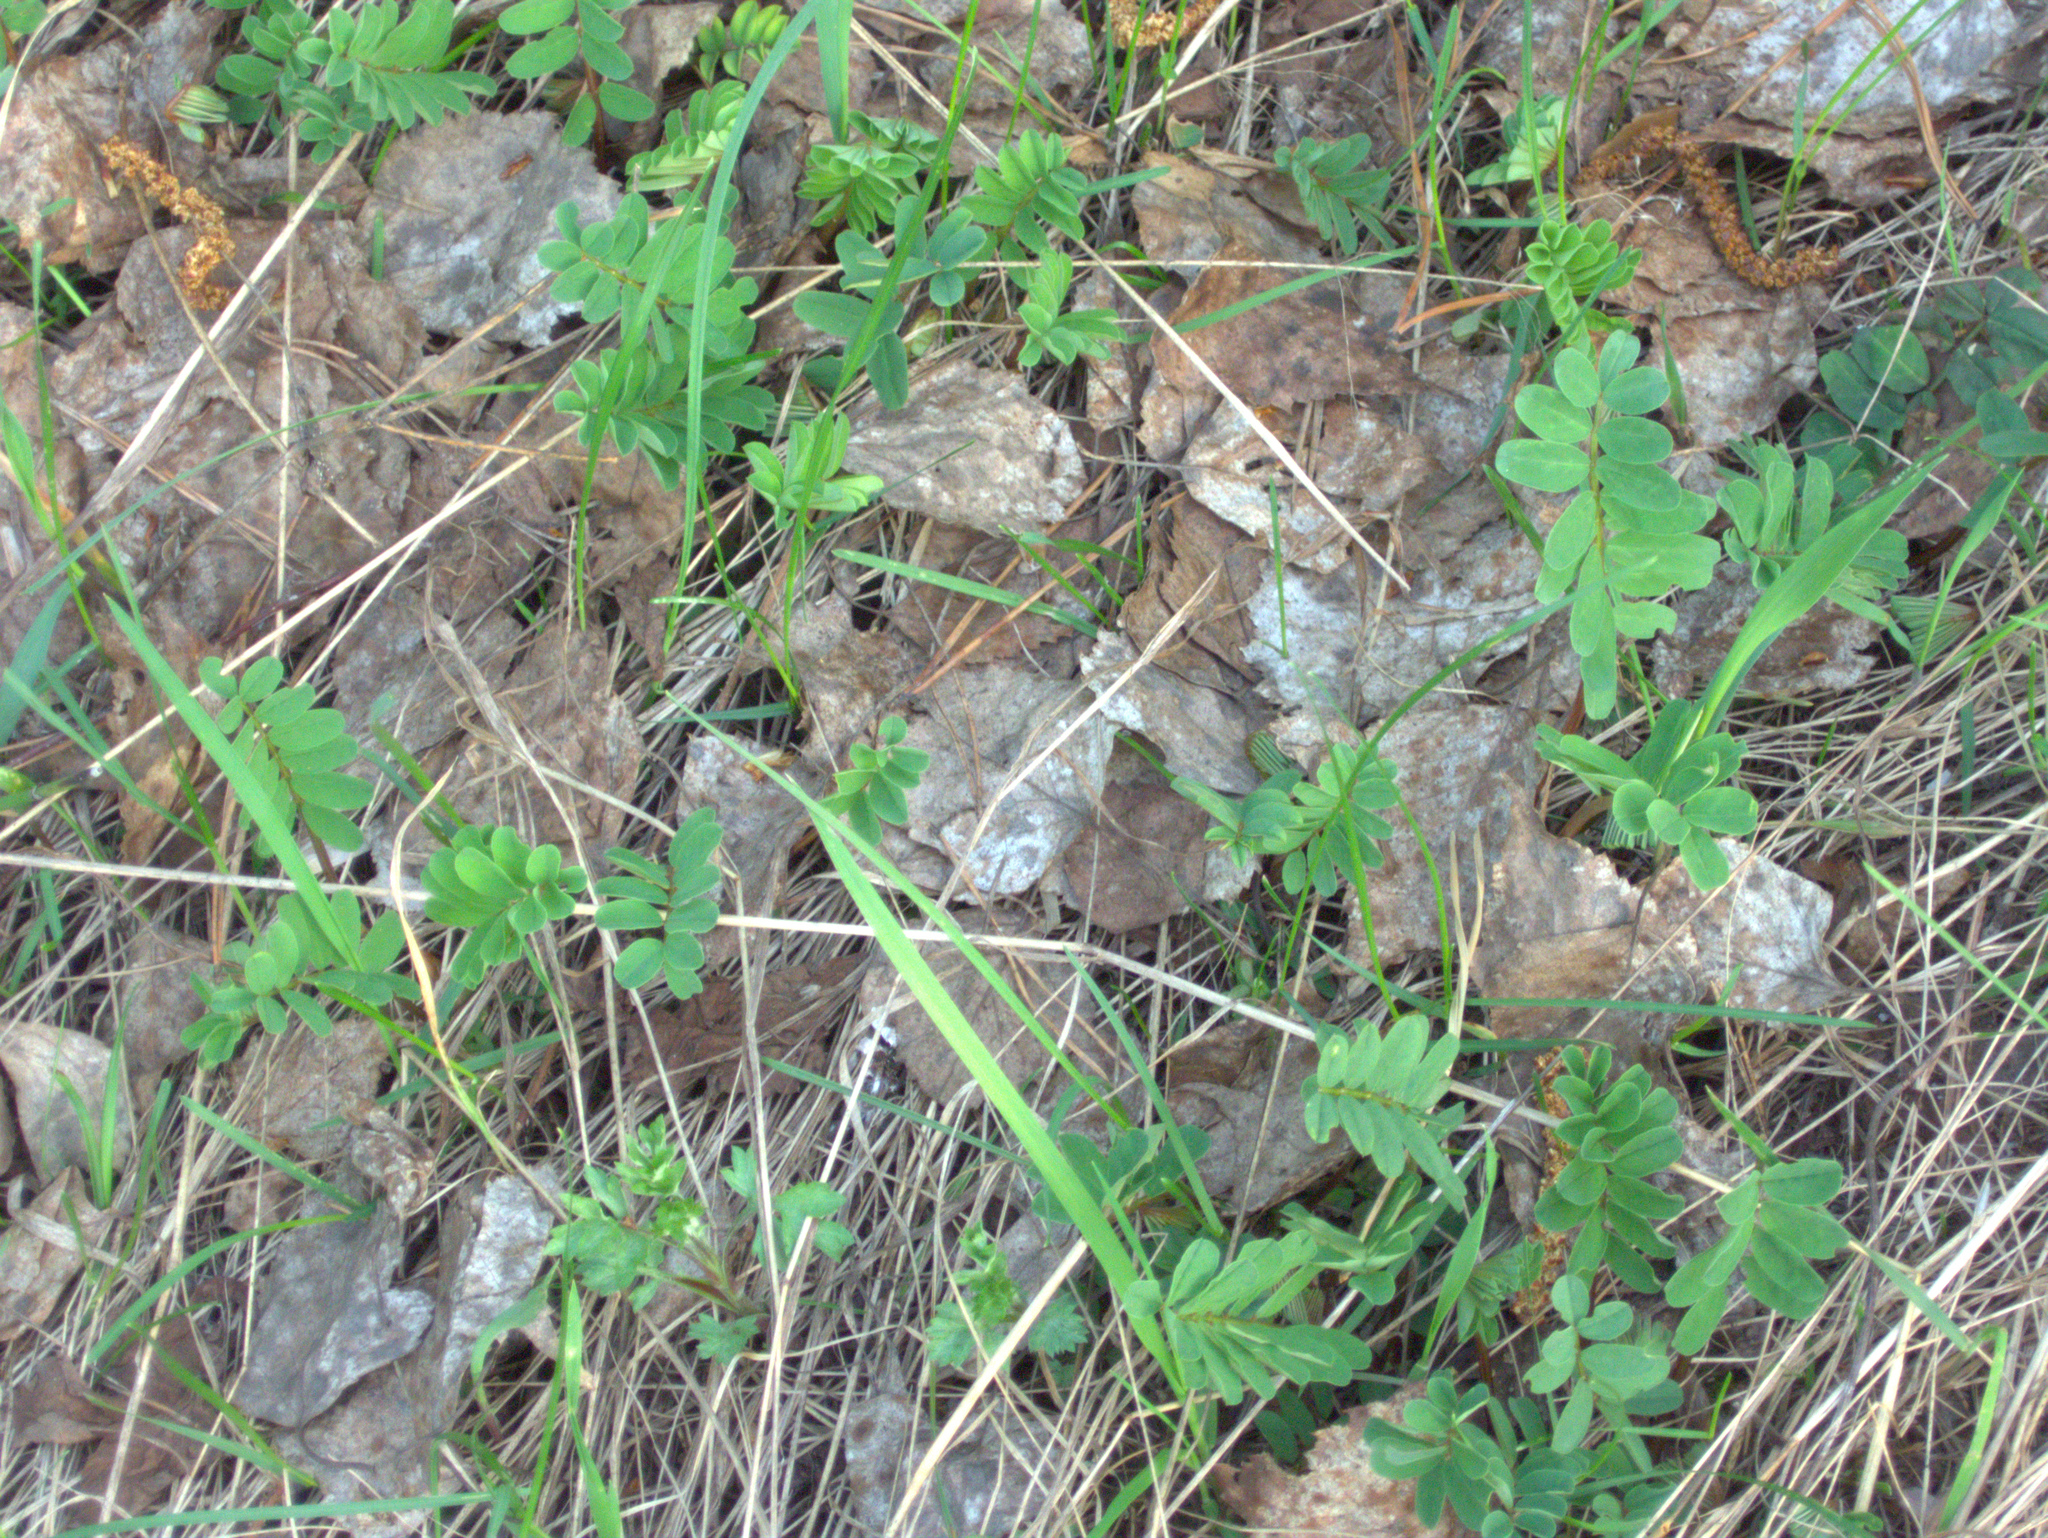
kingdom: Plantae
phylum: Tracheophyta
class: Magnoliopsida
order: Fabales
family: Fabaceae
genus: Coronilla
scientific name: Coronilla varia
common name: Crownvetch
